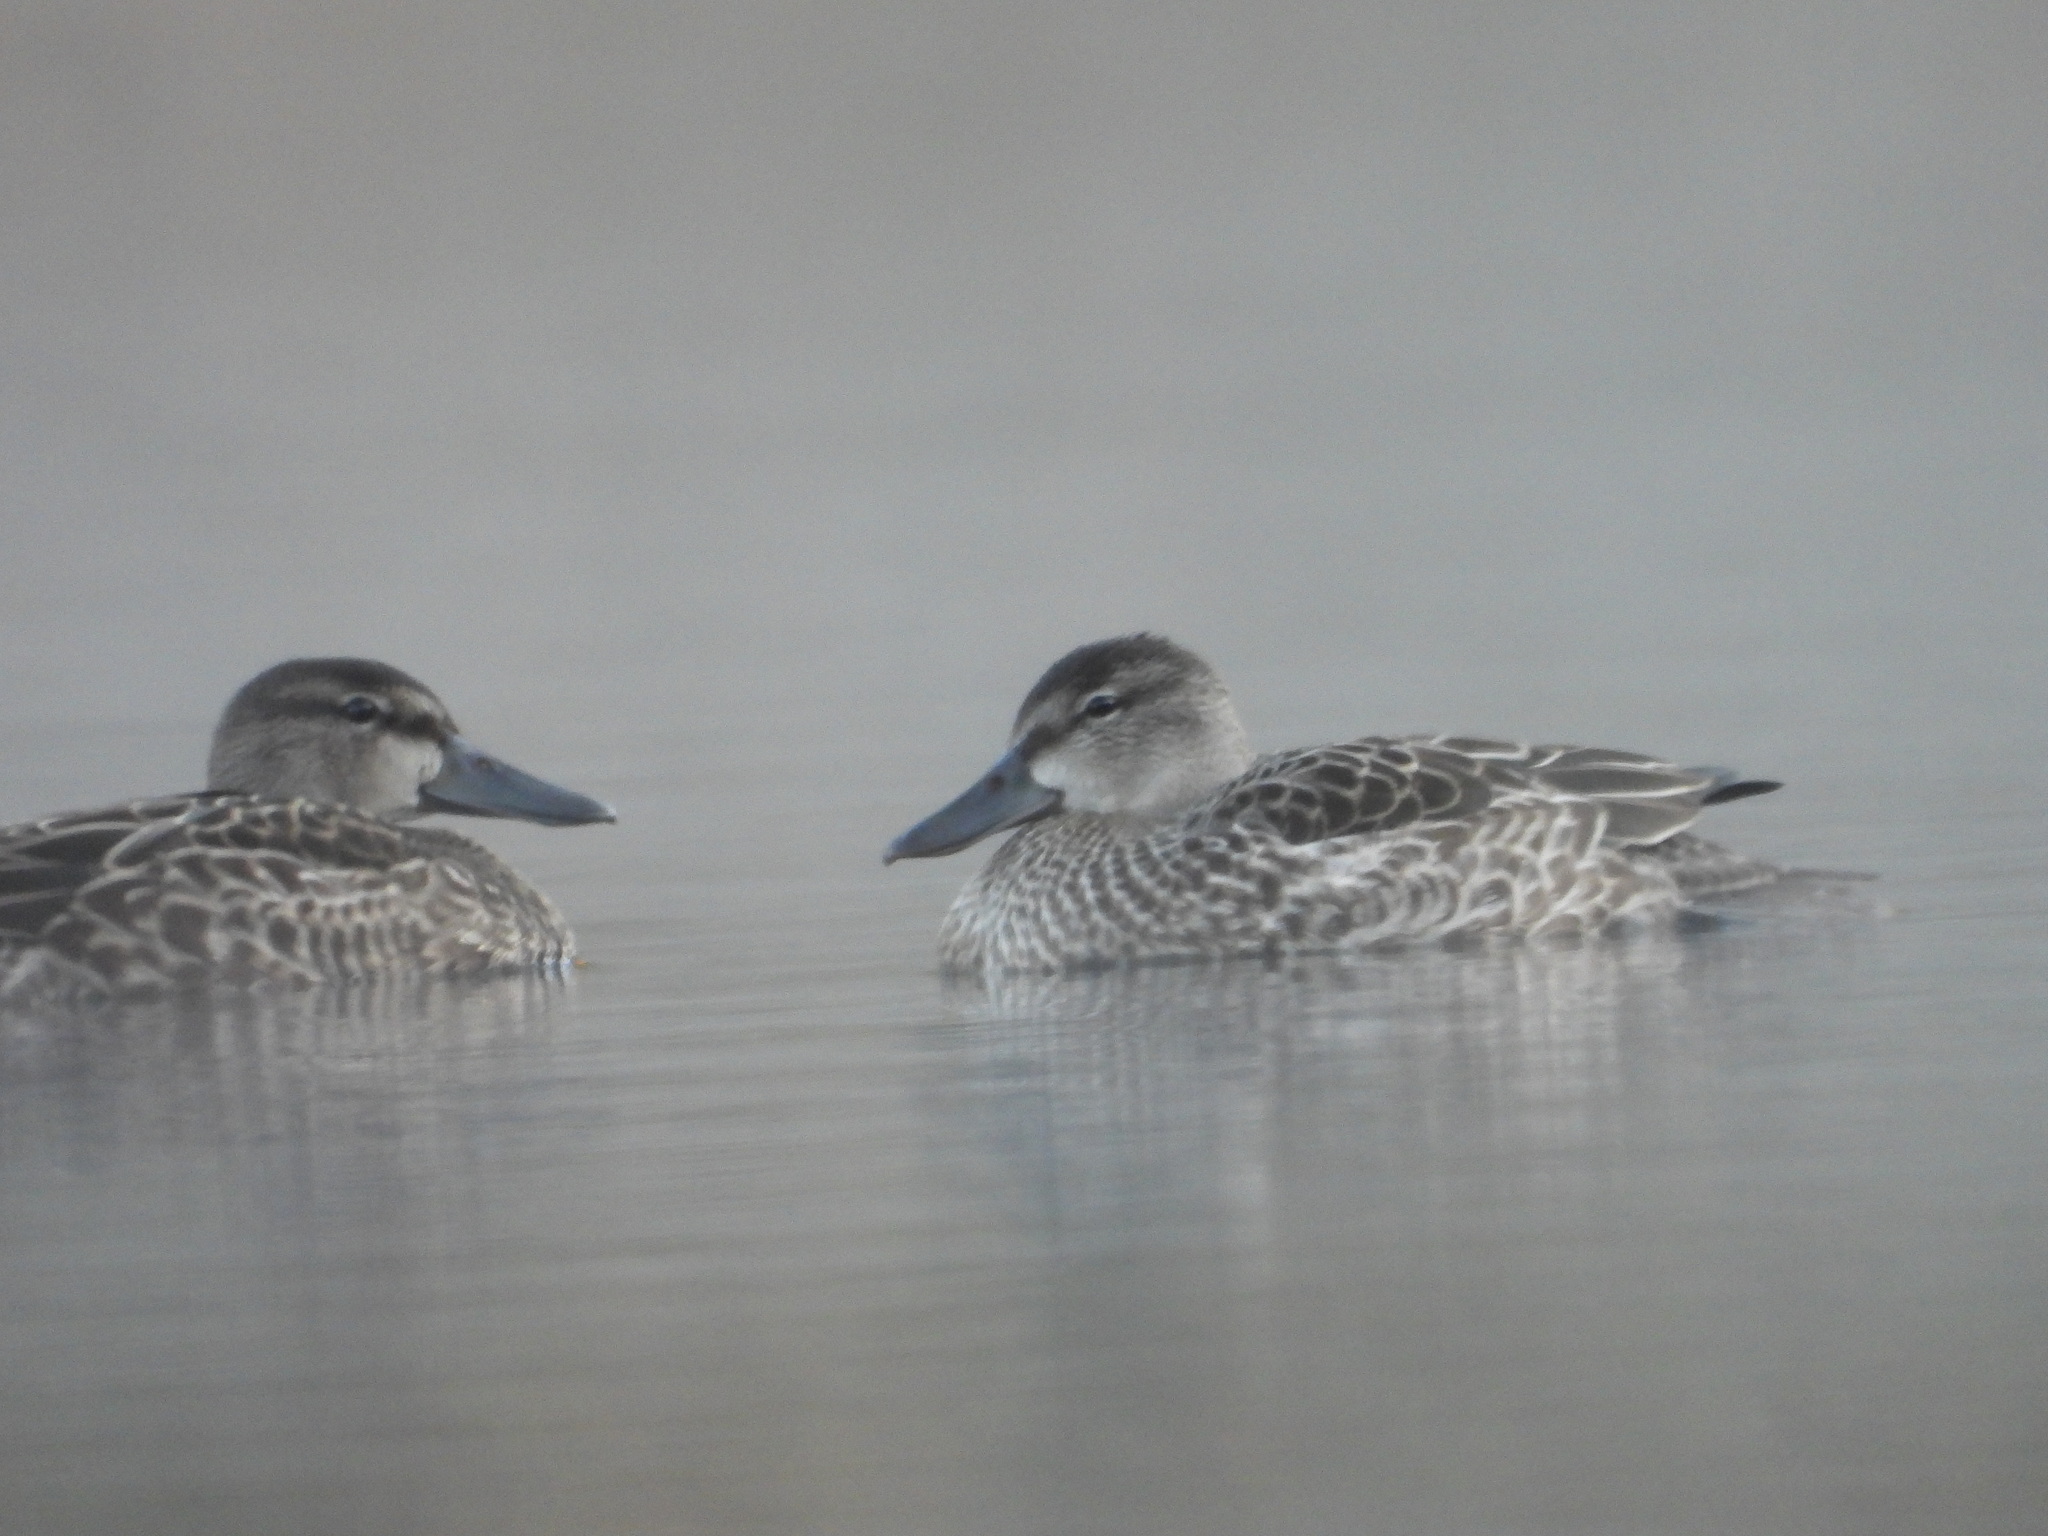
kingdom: Animalia
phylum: Chordata
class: Aves
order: Anseriformes
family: Anatidae
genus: Spatula
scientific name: Spatula discors
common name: Blue-winged teal
